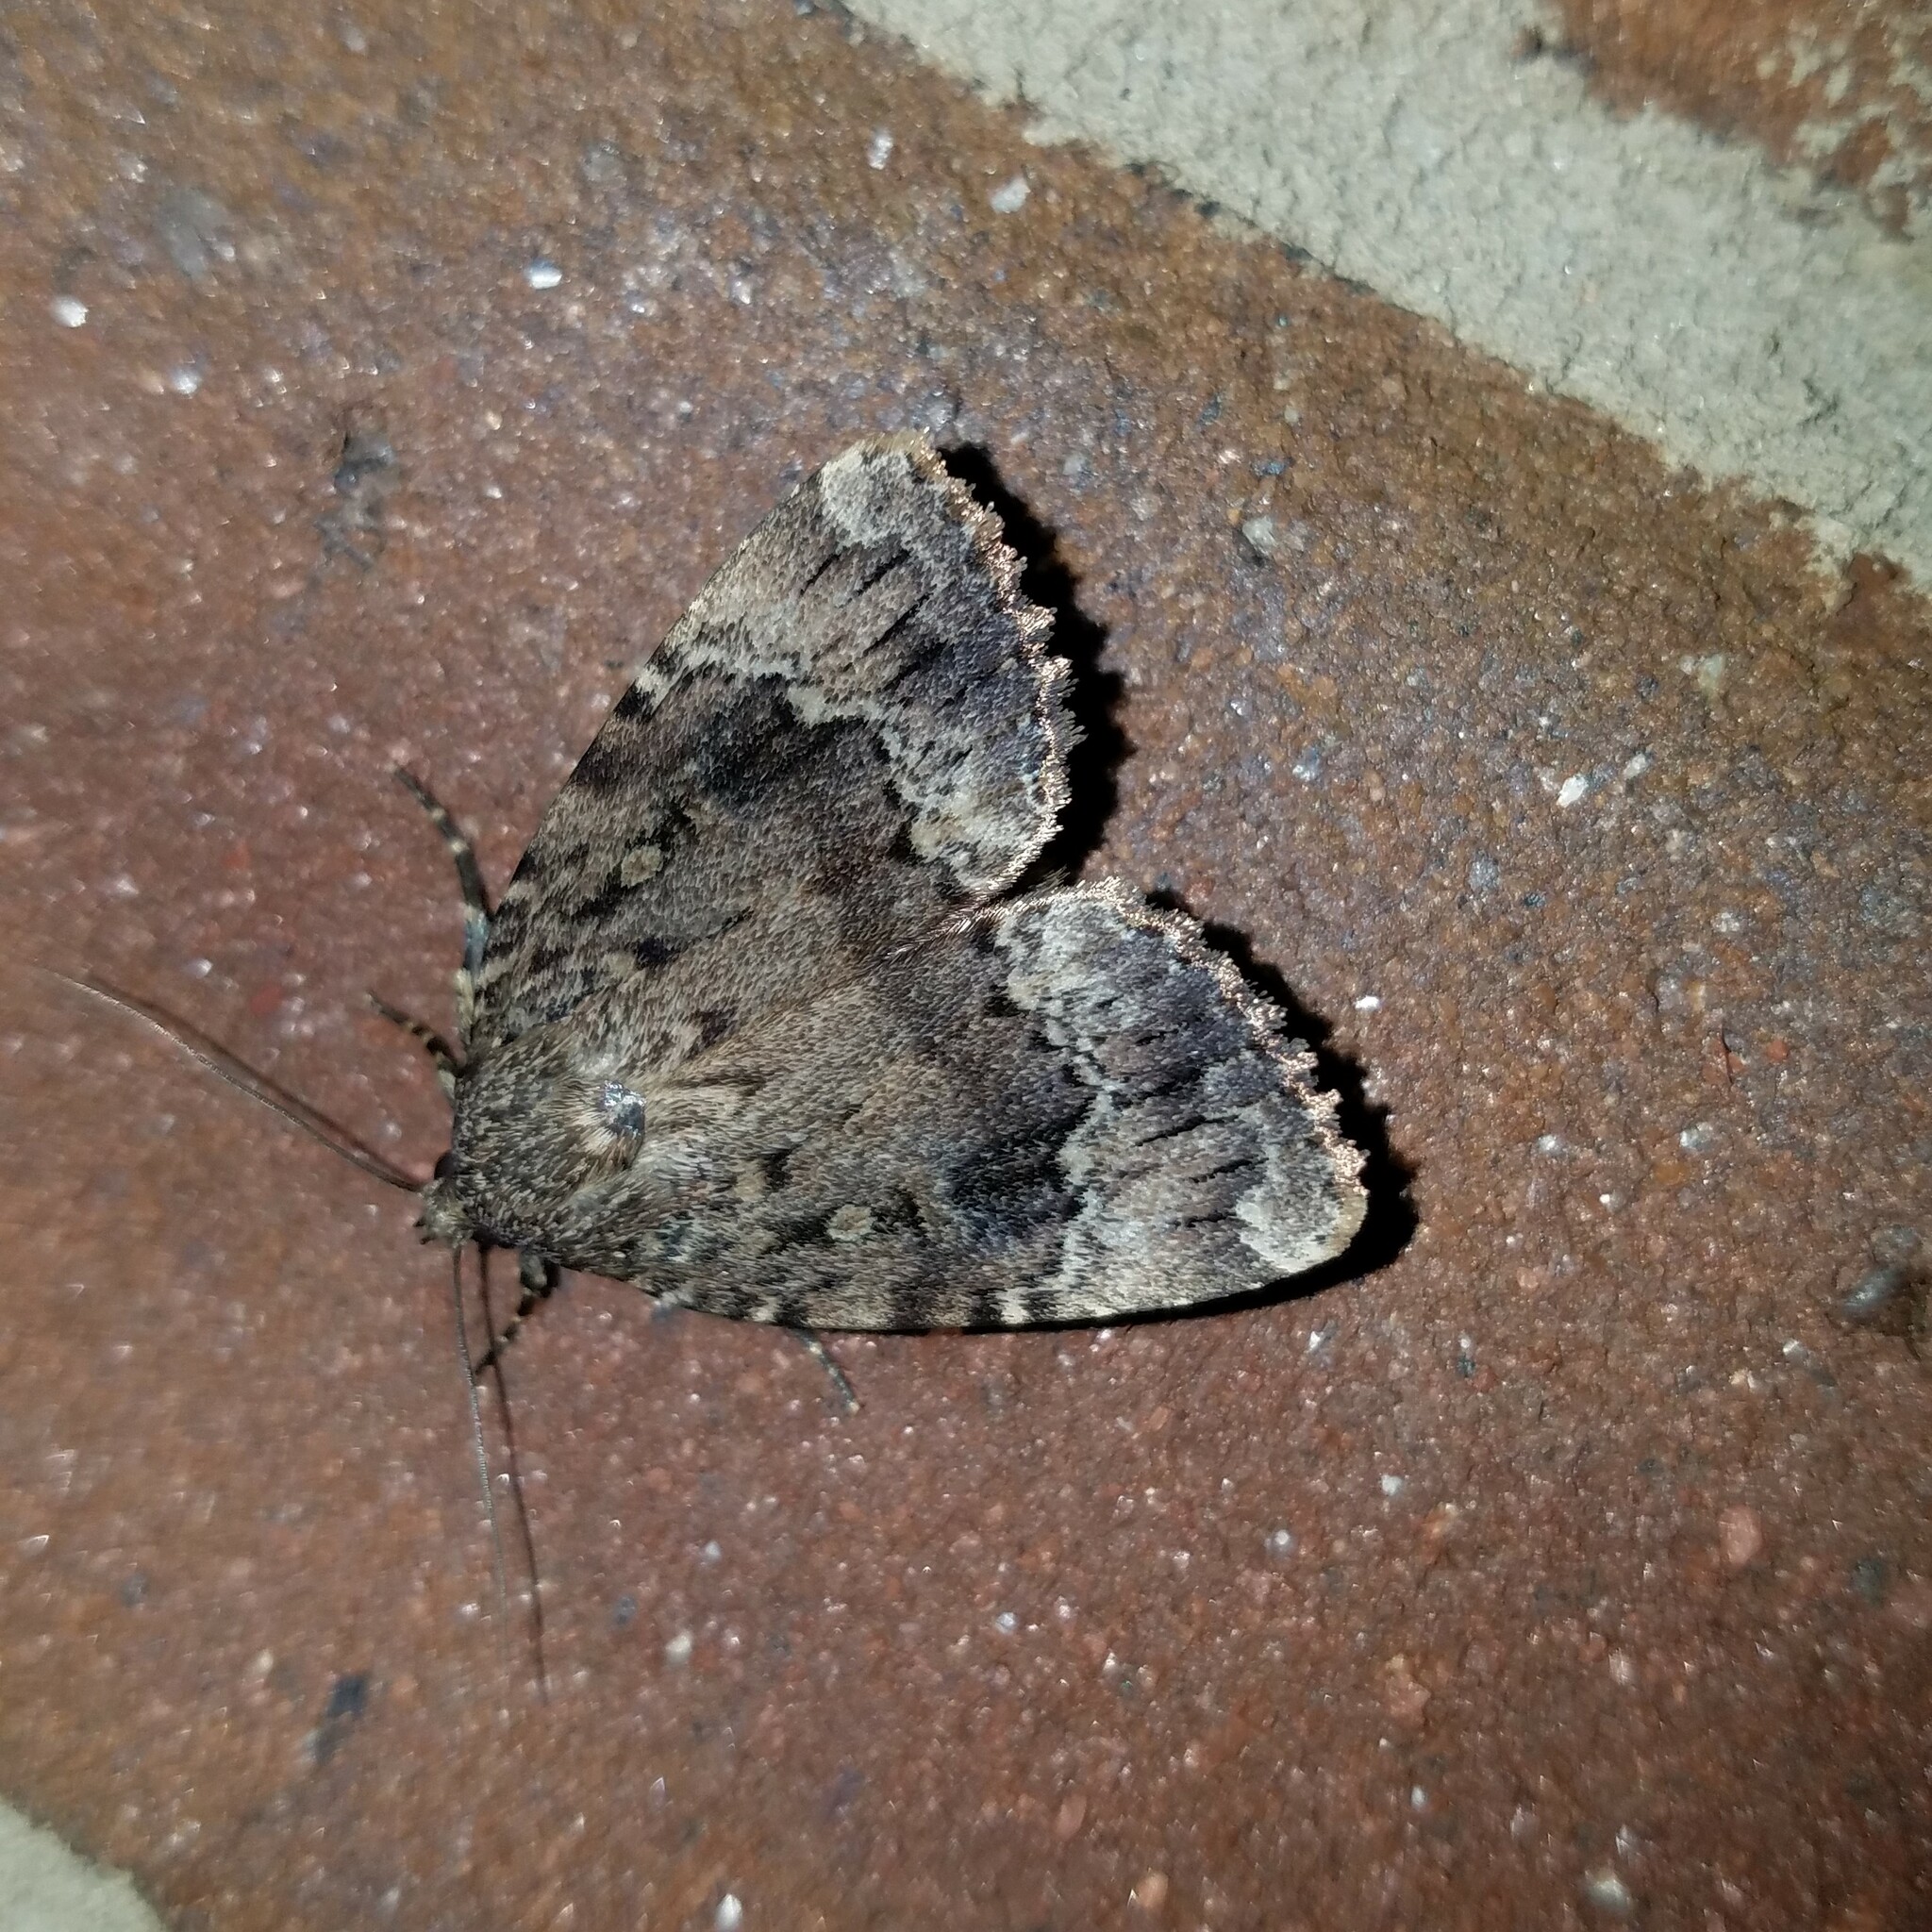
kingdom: Animalia
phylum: Arthropoda
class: Insecta
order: Lepidoptera
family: Noctuidae
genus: Amphipyra
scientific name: Amphipyra pyramidoides
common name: American copper underwing
